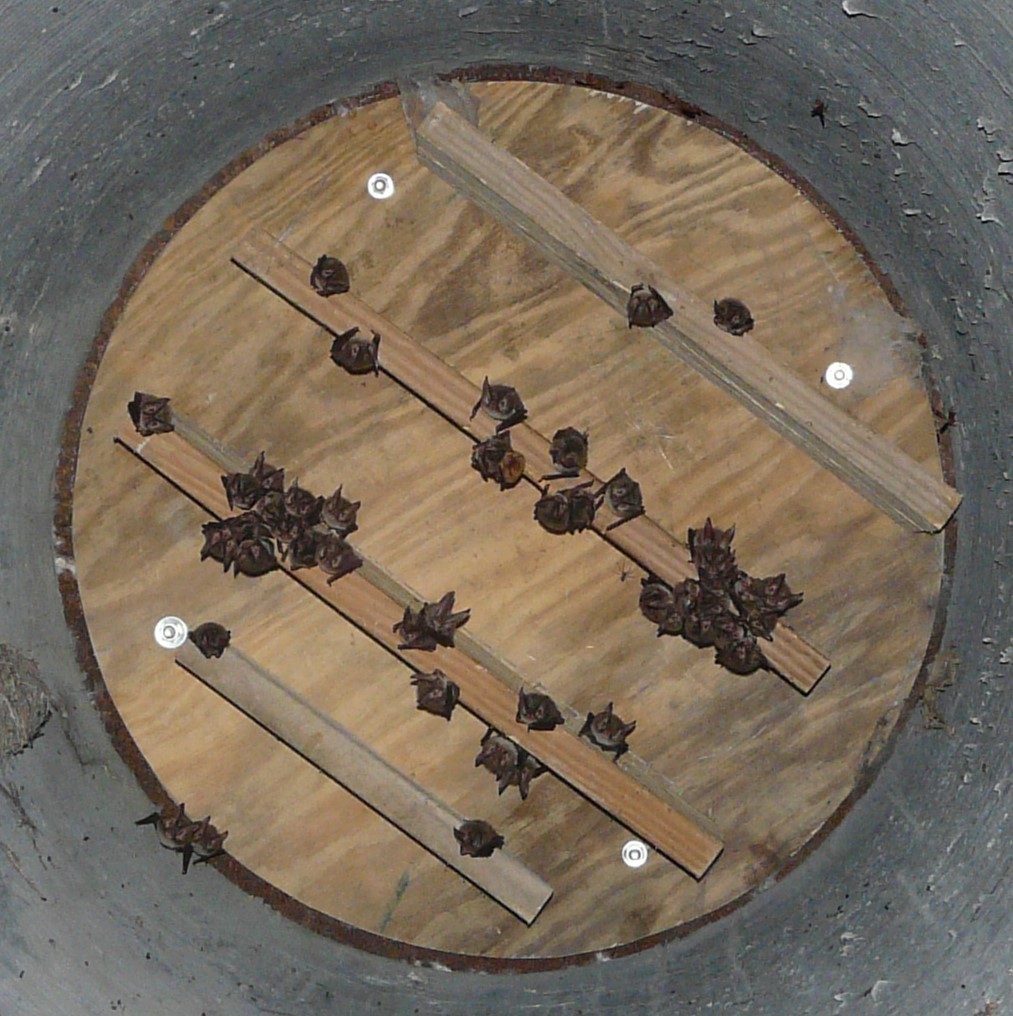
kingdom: Animalia
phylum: Chordata
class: Mammalia
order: Chiroptera
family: Vespertilionidae
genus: Corynorhinus
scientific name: Corynorhinus rafinesquii
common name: Rafinesque's big-eared bat
